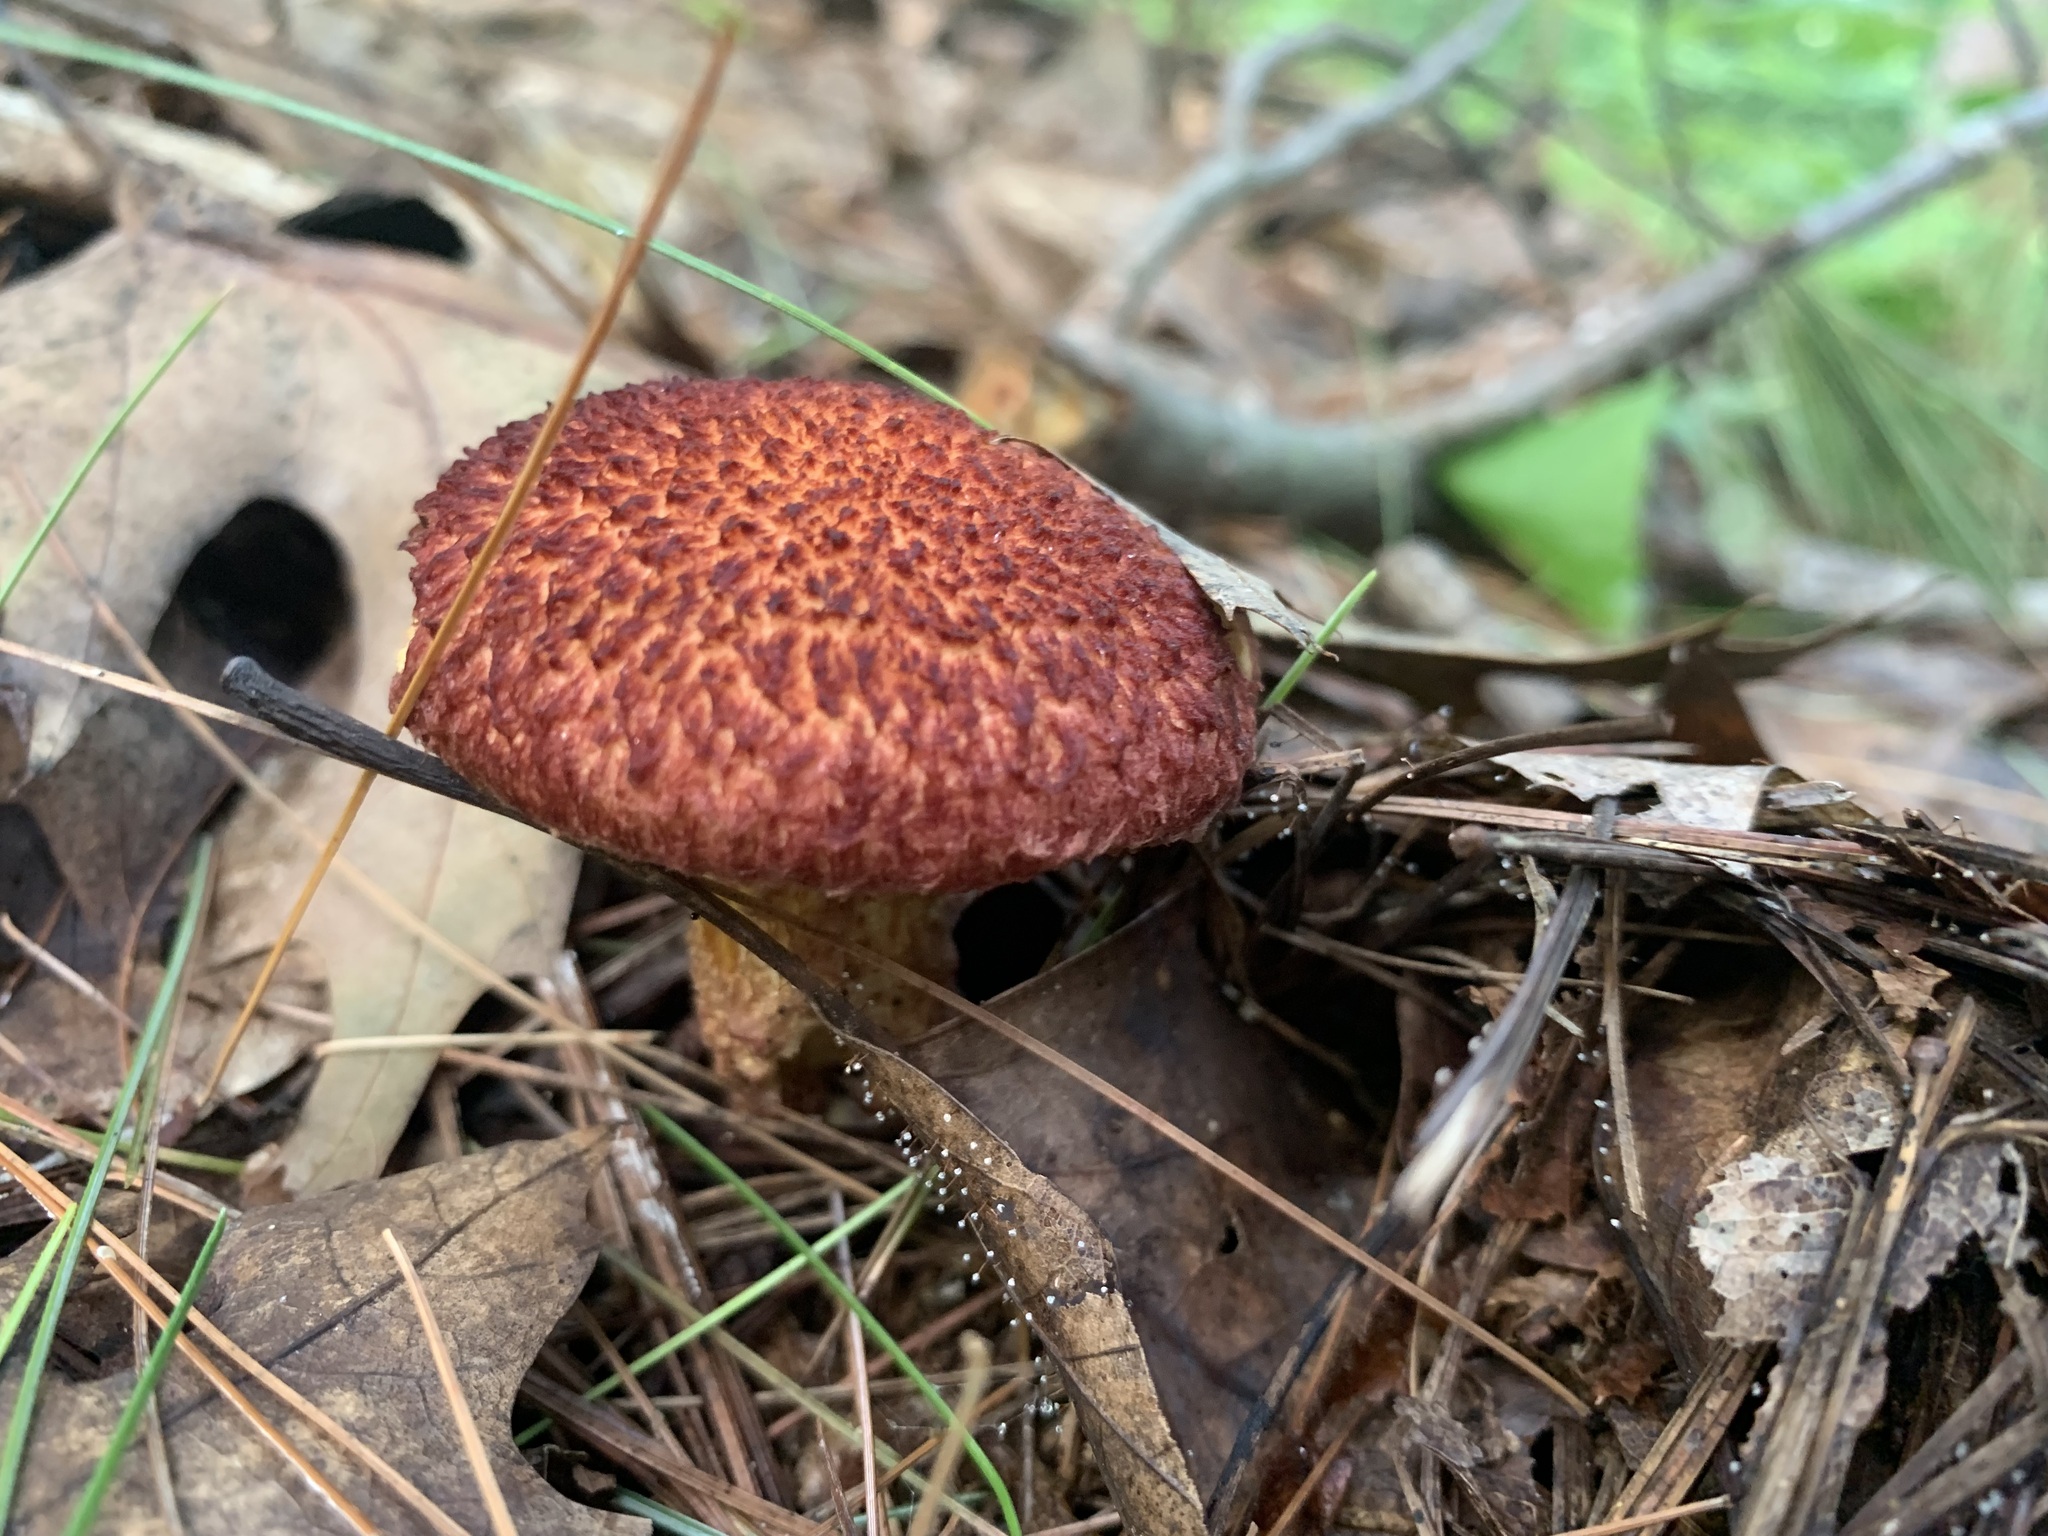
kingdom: Fungi
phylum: Basidiomycota
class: Agaricomycetes
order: Boletales
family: Suillaceae
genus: Suillus
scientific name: Suillus spraguei
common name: Painted suillus
